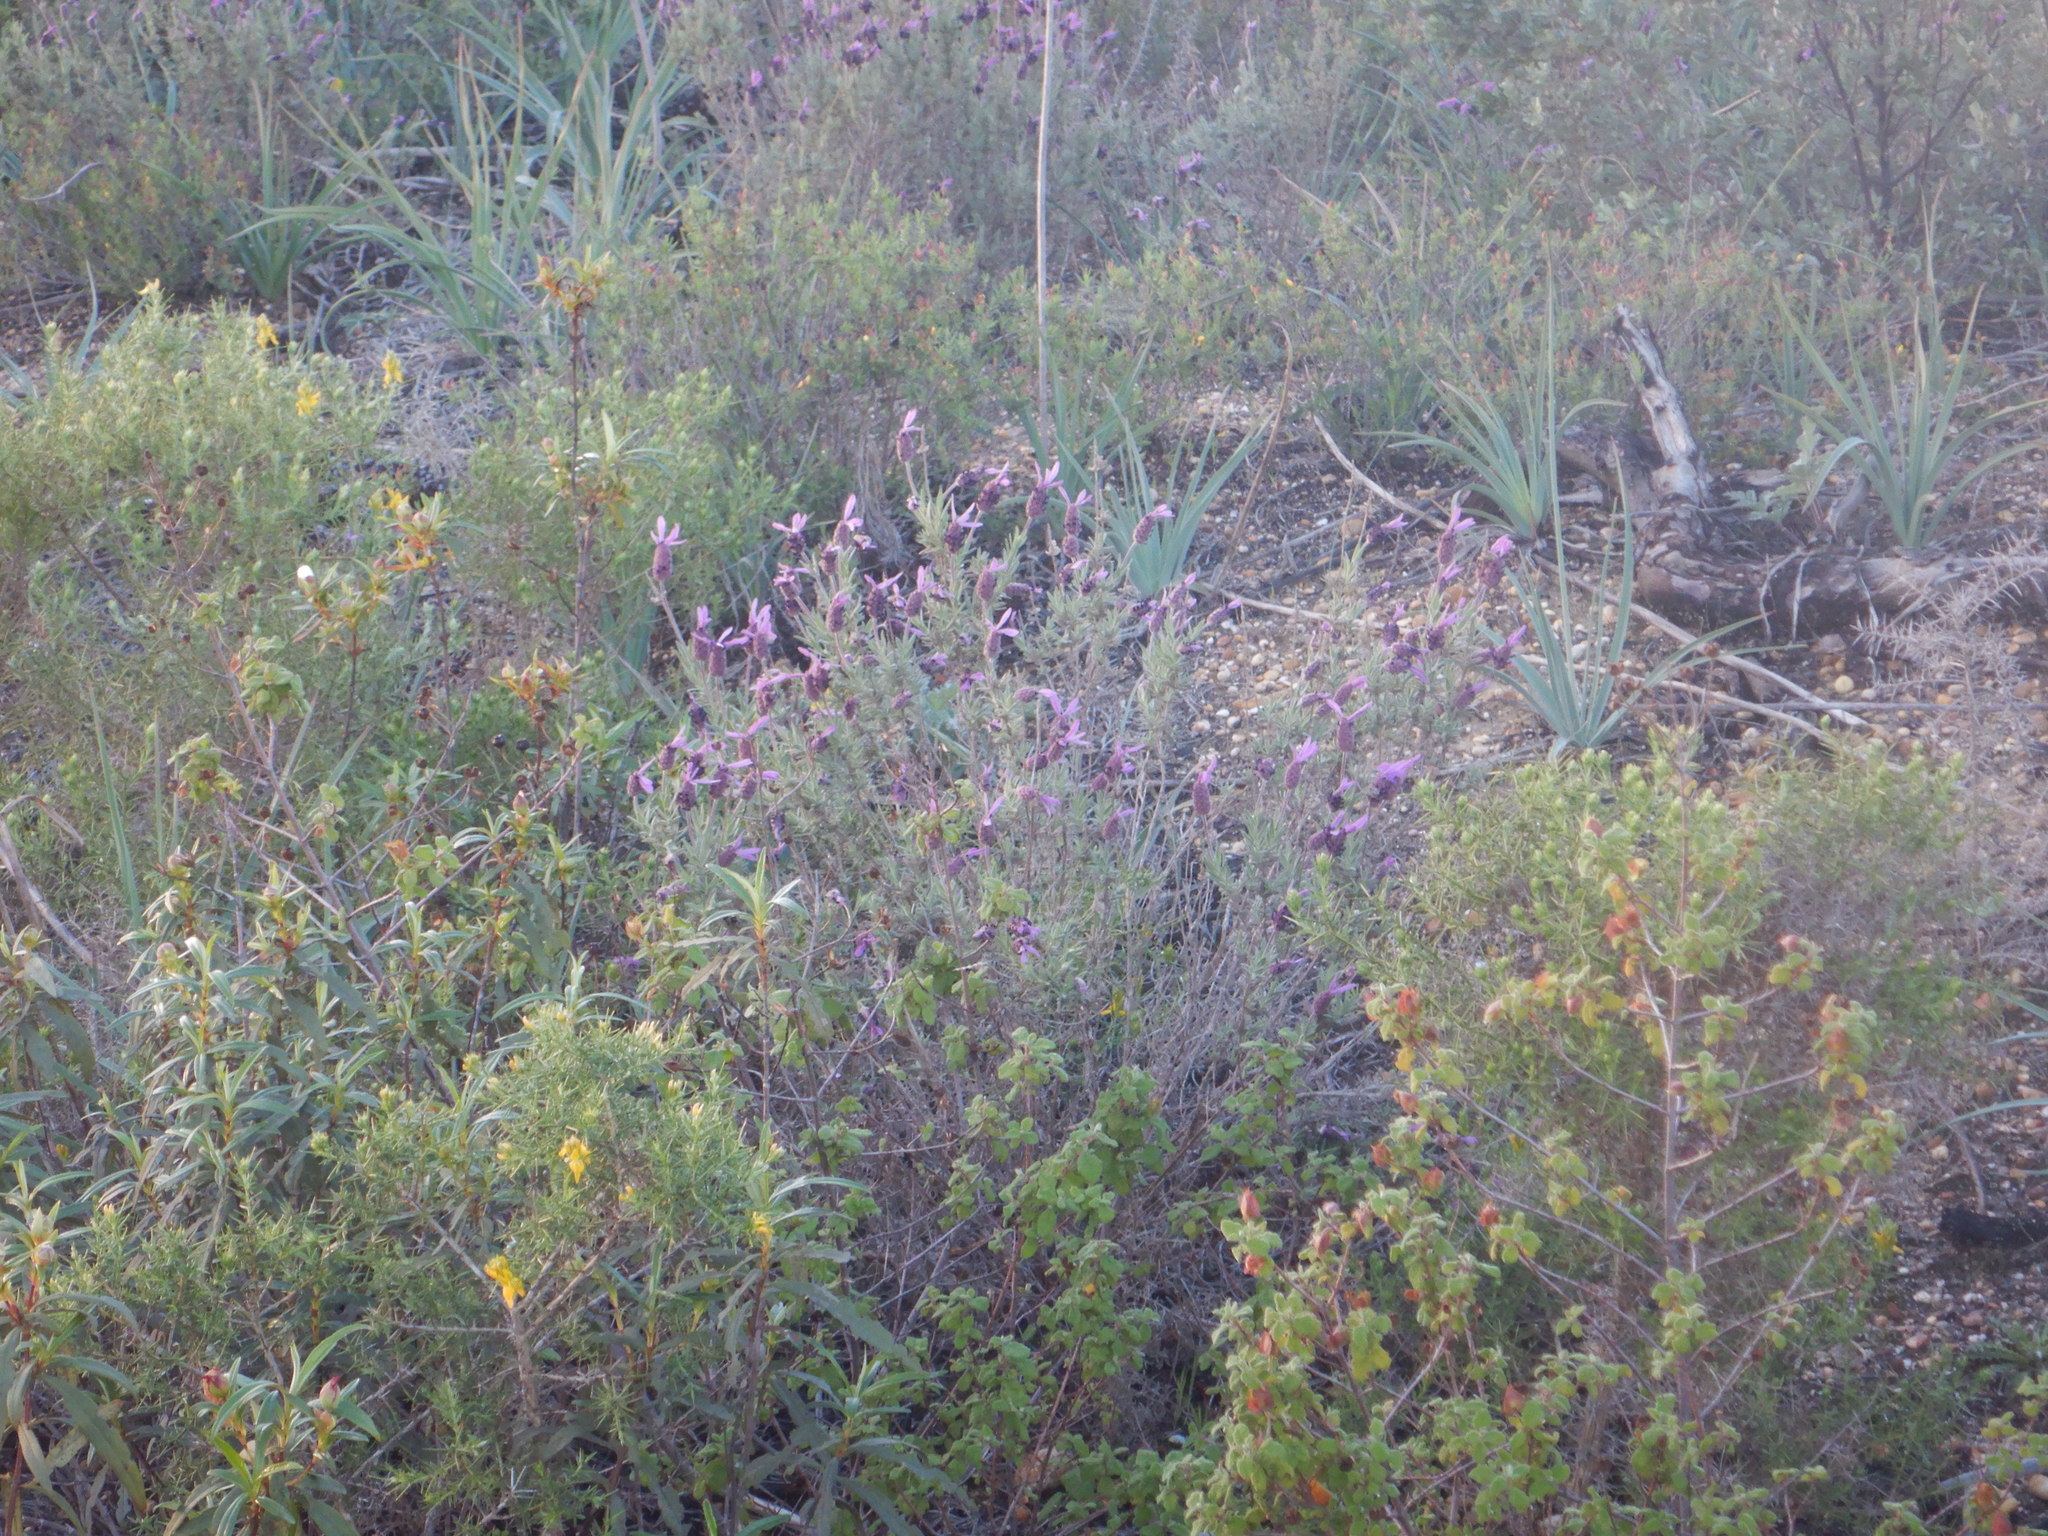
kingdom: Plantae
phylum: Tracheophyta
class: Magnoliopsida
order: Lamiales
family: Lamiaceae
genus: Lavandula
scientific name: Lavandula pedunculata
